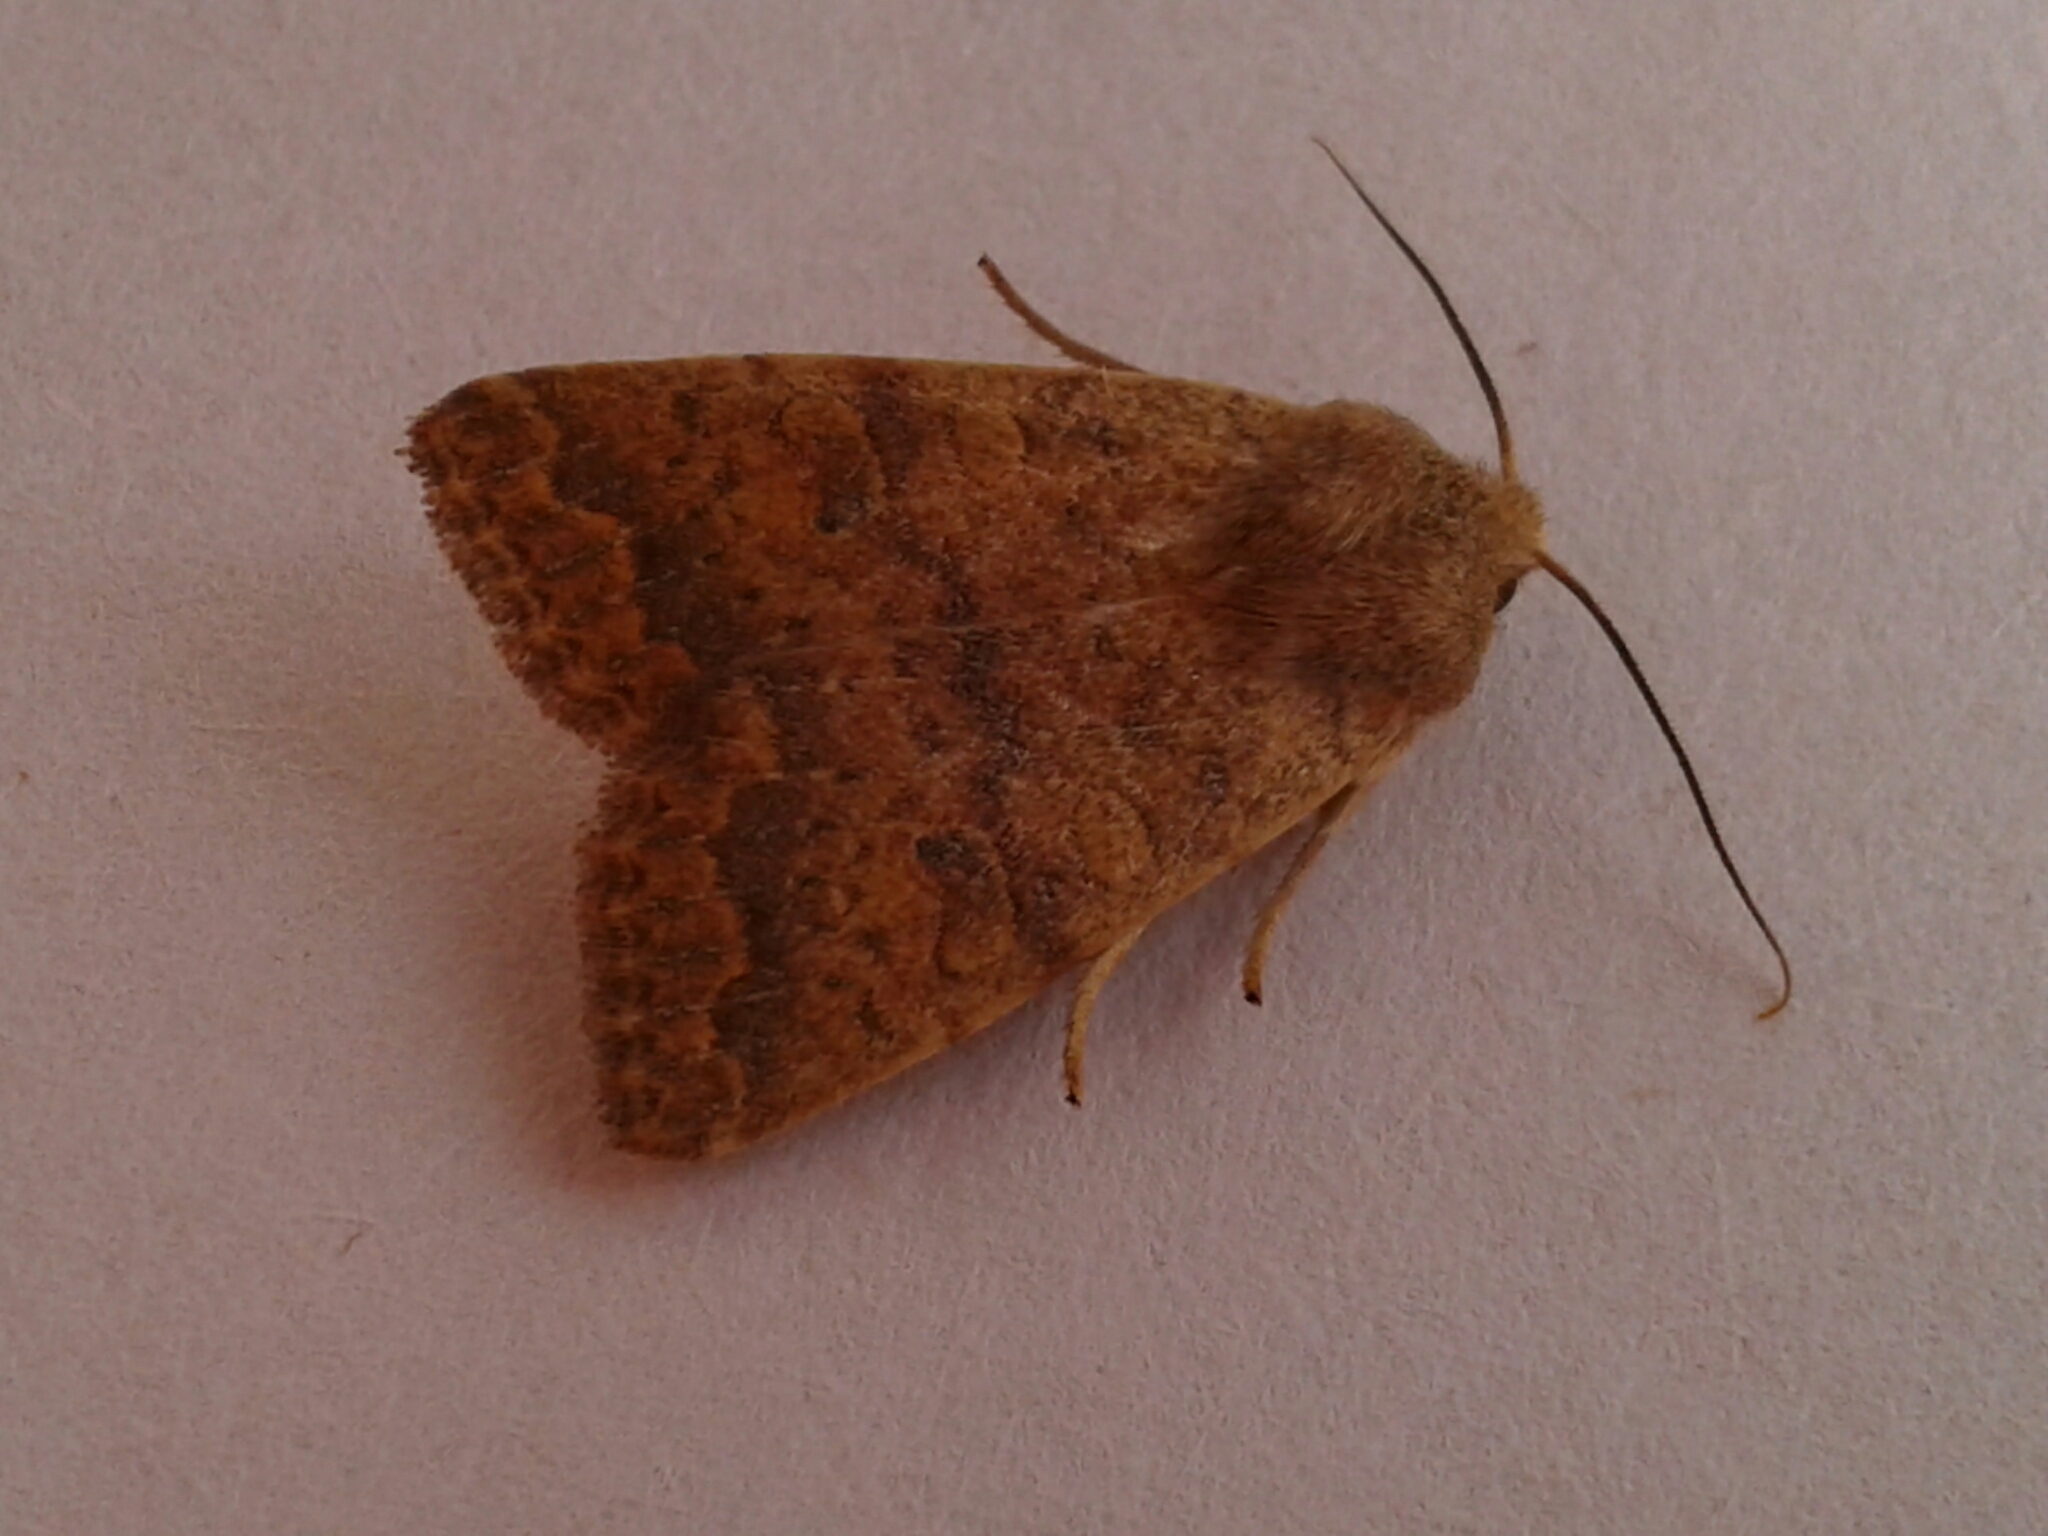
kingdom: Animalia
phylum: Arthropoda
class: Insecta
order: Lepidoptera
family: Noctuidae
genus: Agrochola
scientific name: Agrochola bicolorago
